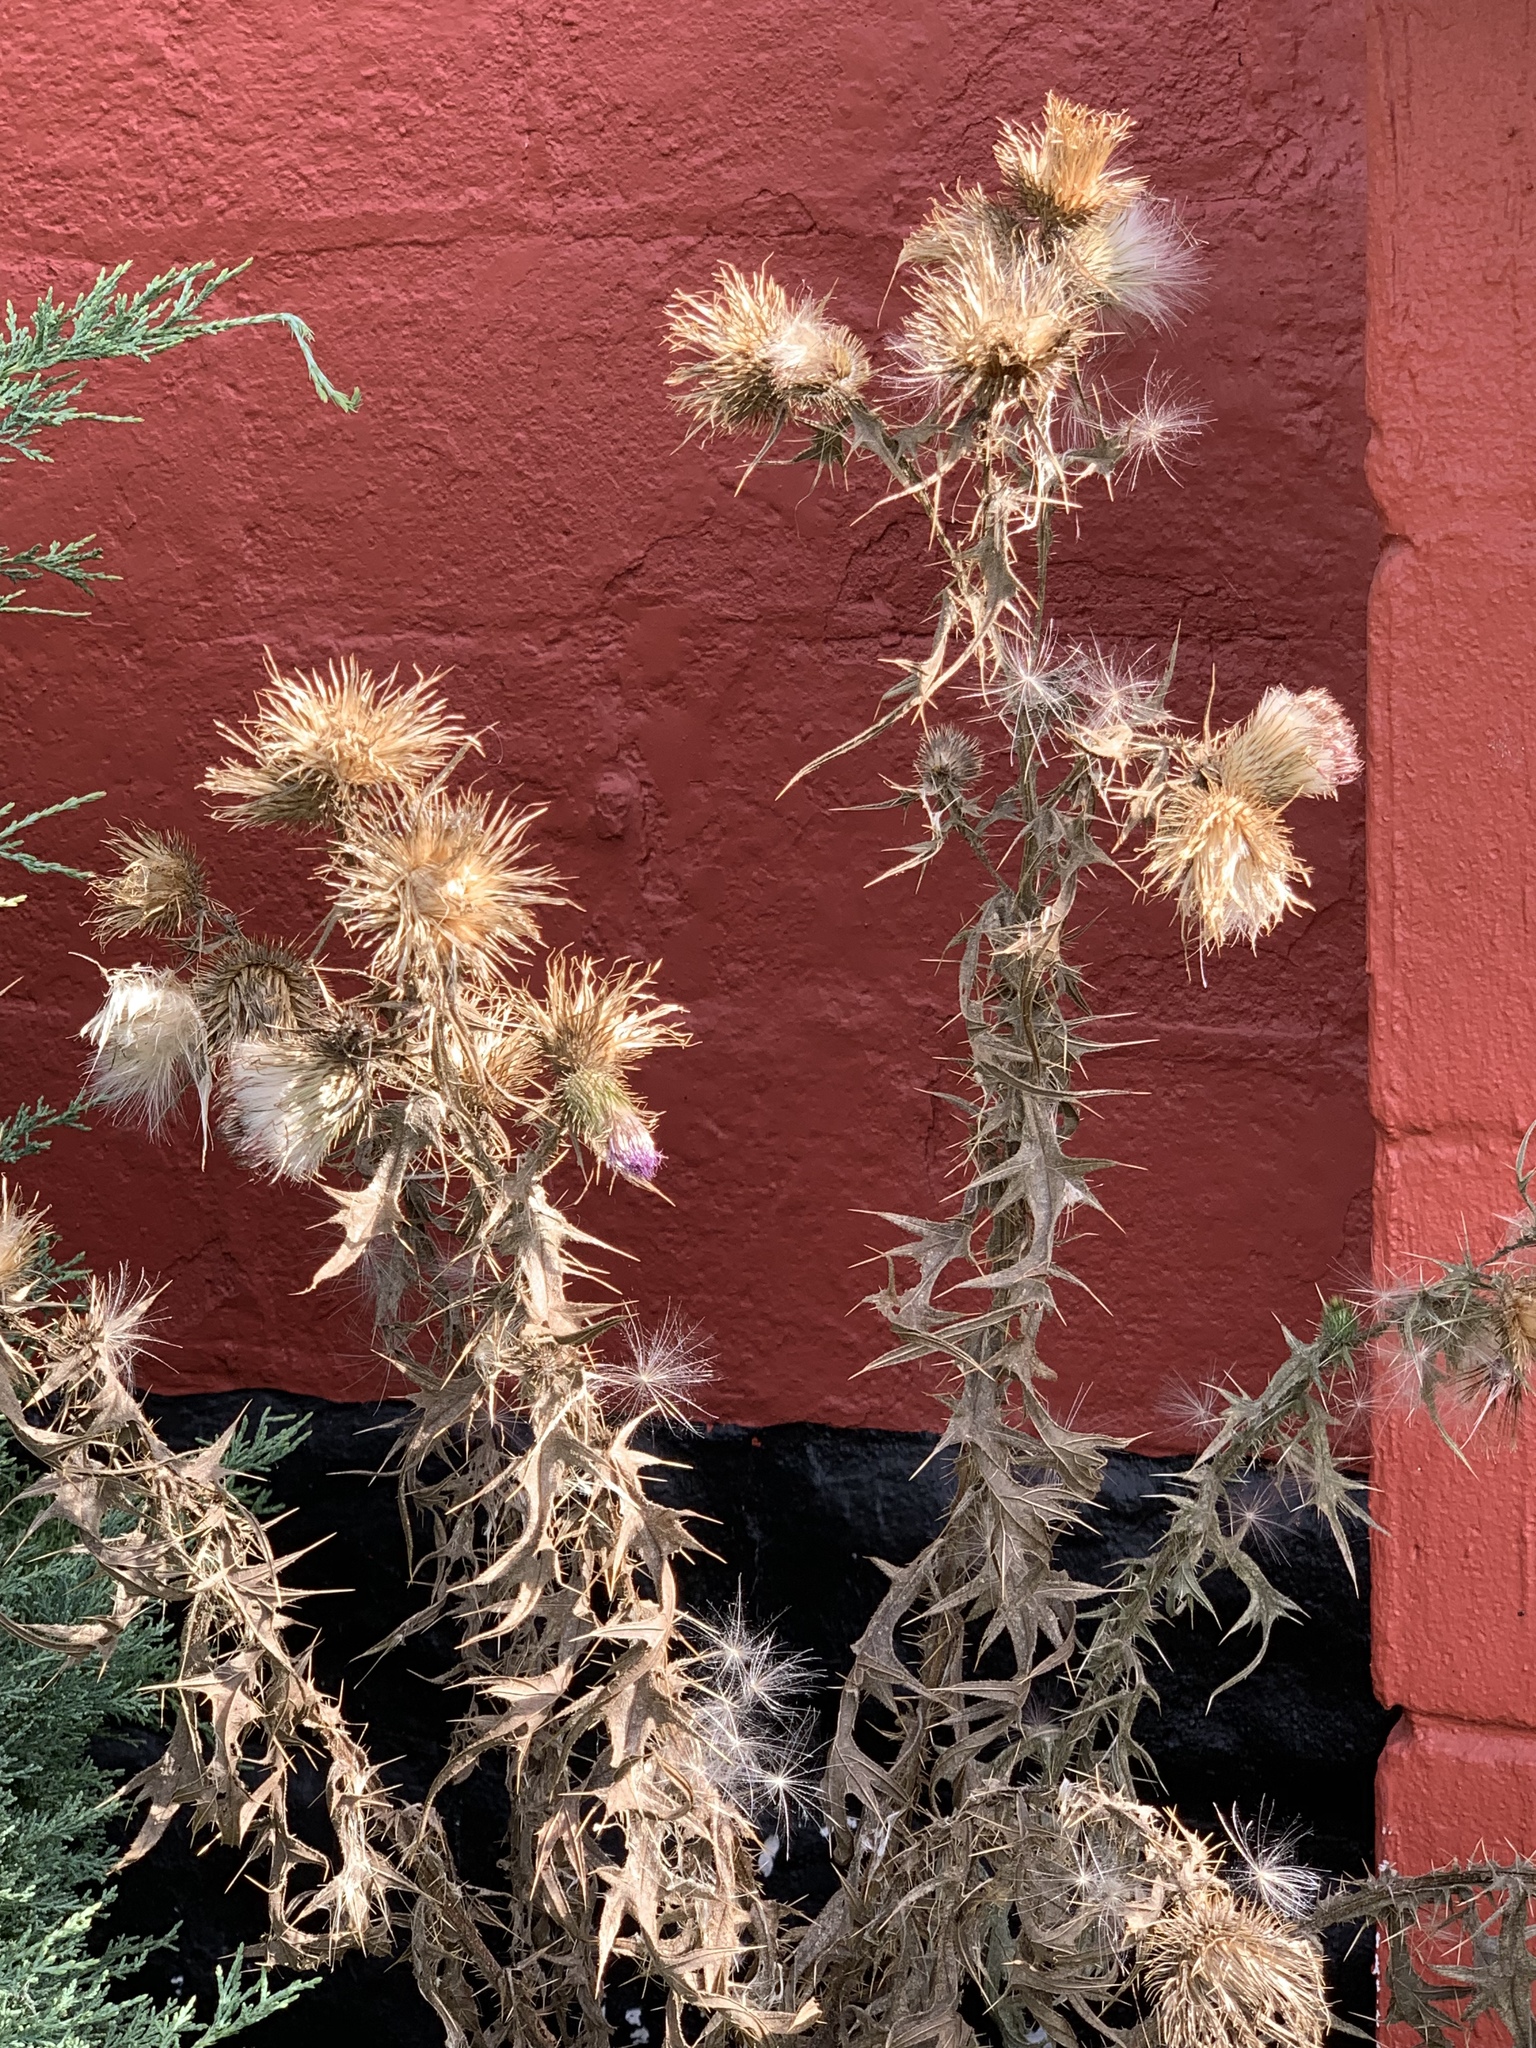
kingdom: Plantae
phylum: Tracheophyta
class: Magnoliopsida
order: Asterales
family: Asteraceae
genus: Cirsium
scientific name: Cirsium vulgare
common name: Bull thistle
